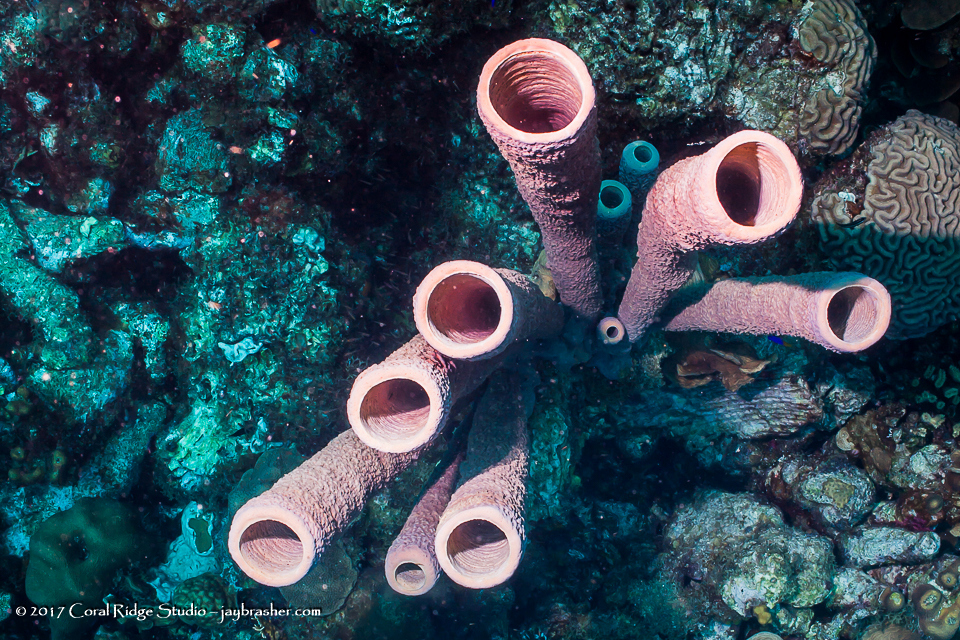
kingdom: Animalia
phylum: Porifera
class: Demospongiae
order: Verongiida
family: Aplysinidae
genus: Aplysina
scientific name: Aplysina archeri
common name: Stove-pipe sponge
